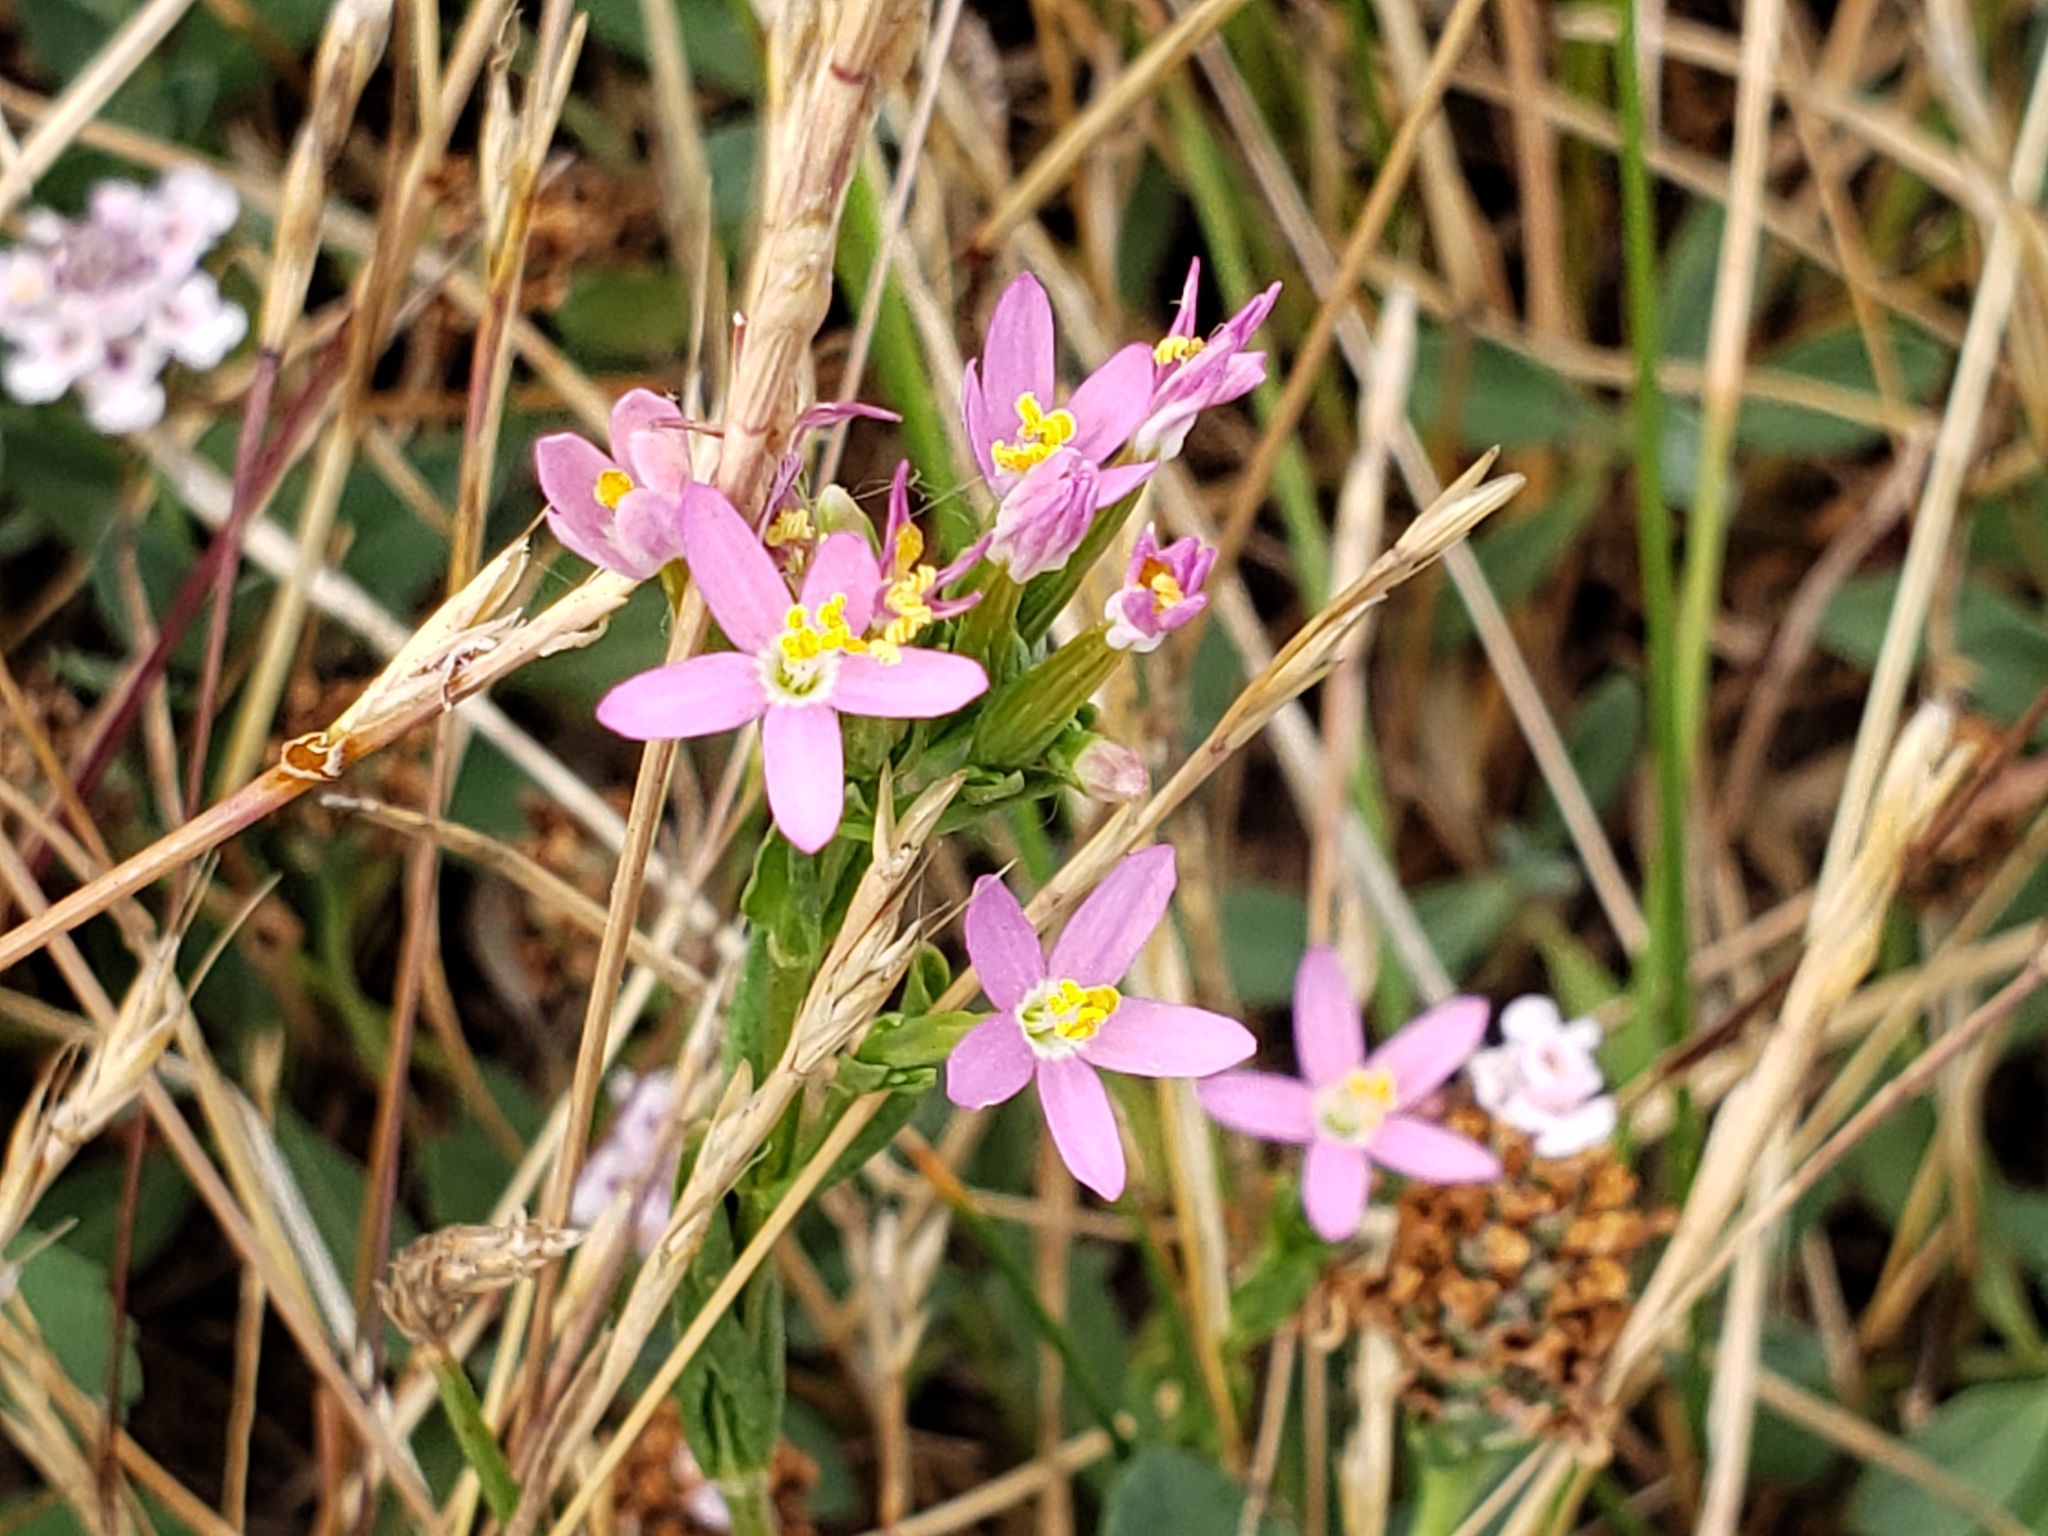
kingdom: Plantae
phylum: Tracheophyta
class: Magnoliopsida
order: Gentianales
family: Gentianaceae
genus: Zeltnera
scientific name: Zeltnera venusta
